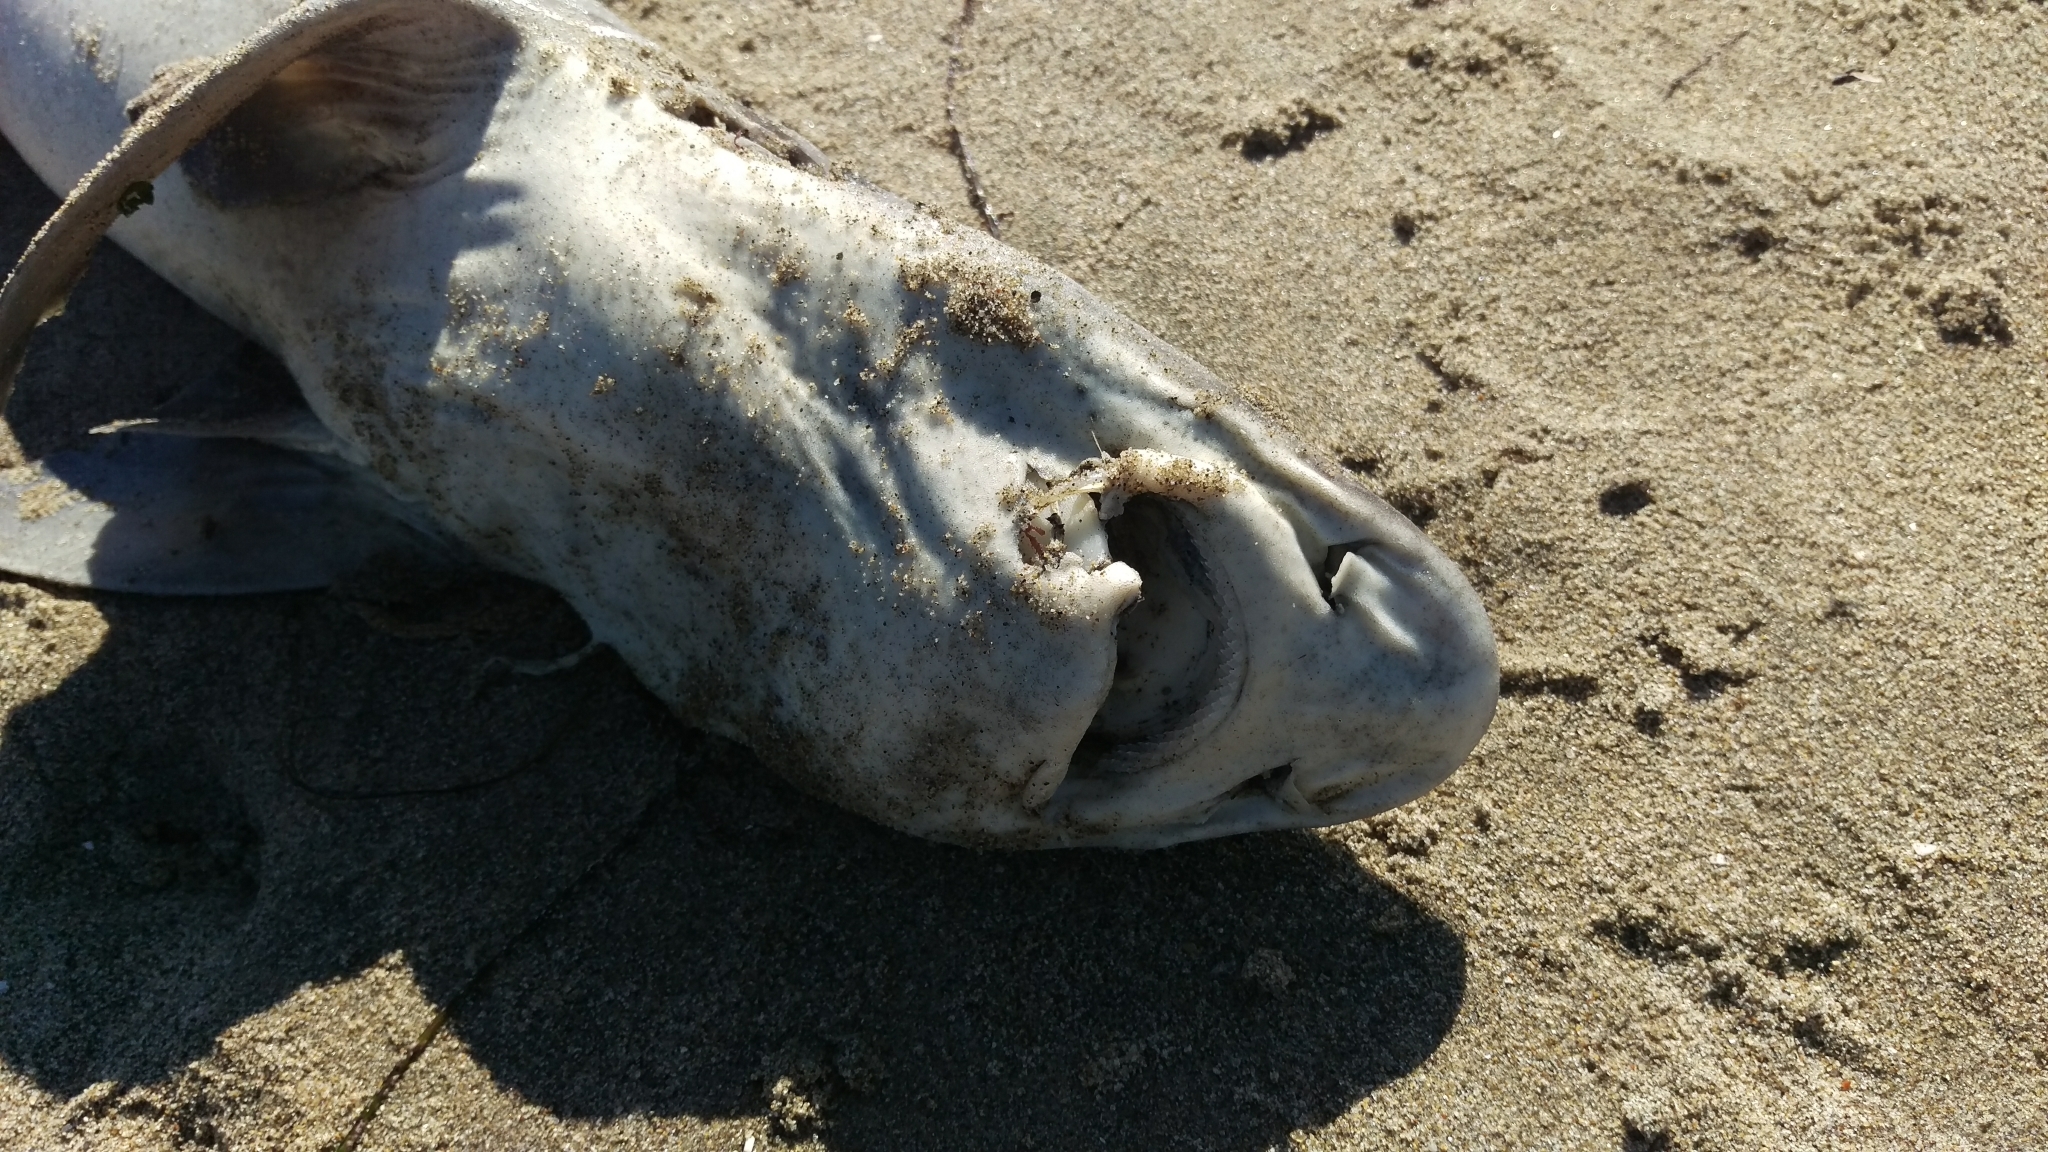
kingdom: Animalia
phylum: Chordata
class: Elasmobranchii
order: Carcharhiniformes
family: Triakidae
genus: Triakis
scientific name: Triakis semifasciata
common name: Leopard shark
